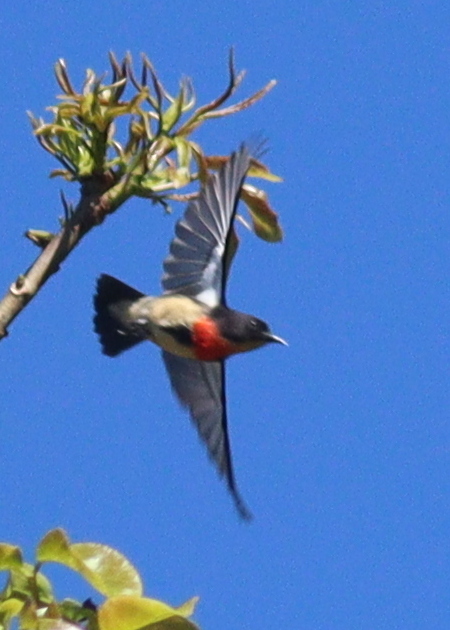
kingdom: Animalia
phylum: Chordata
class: Aves
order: Passeriformes
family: Dicaeidae
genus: Dicaeum
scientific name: Dicaeum sanguinolentum
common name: Blood-breasted flowerpecker
